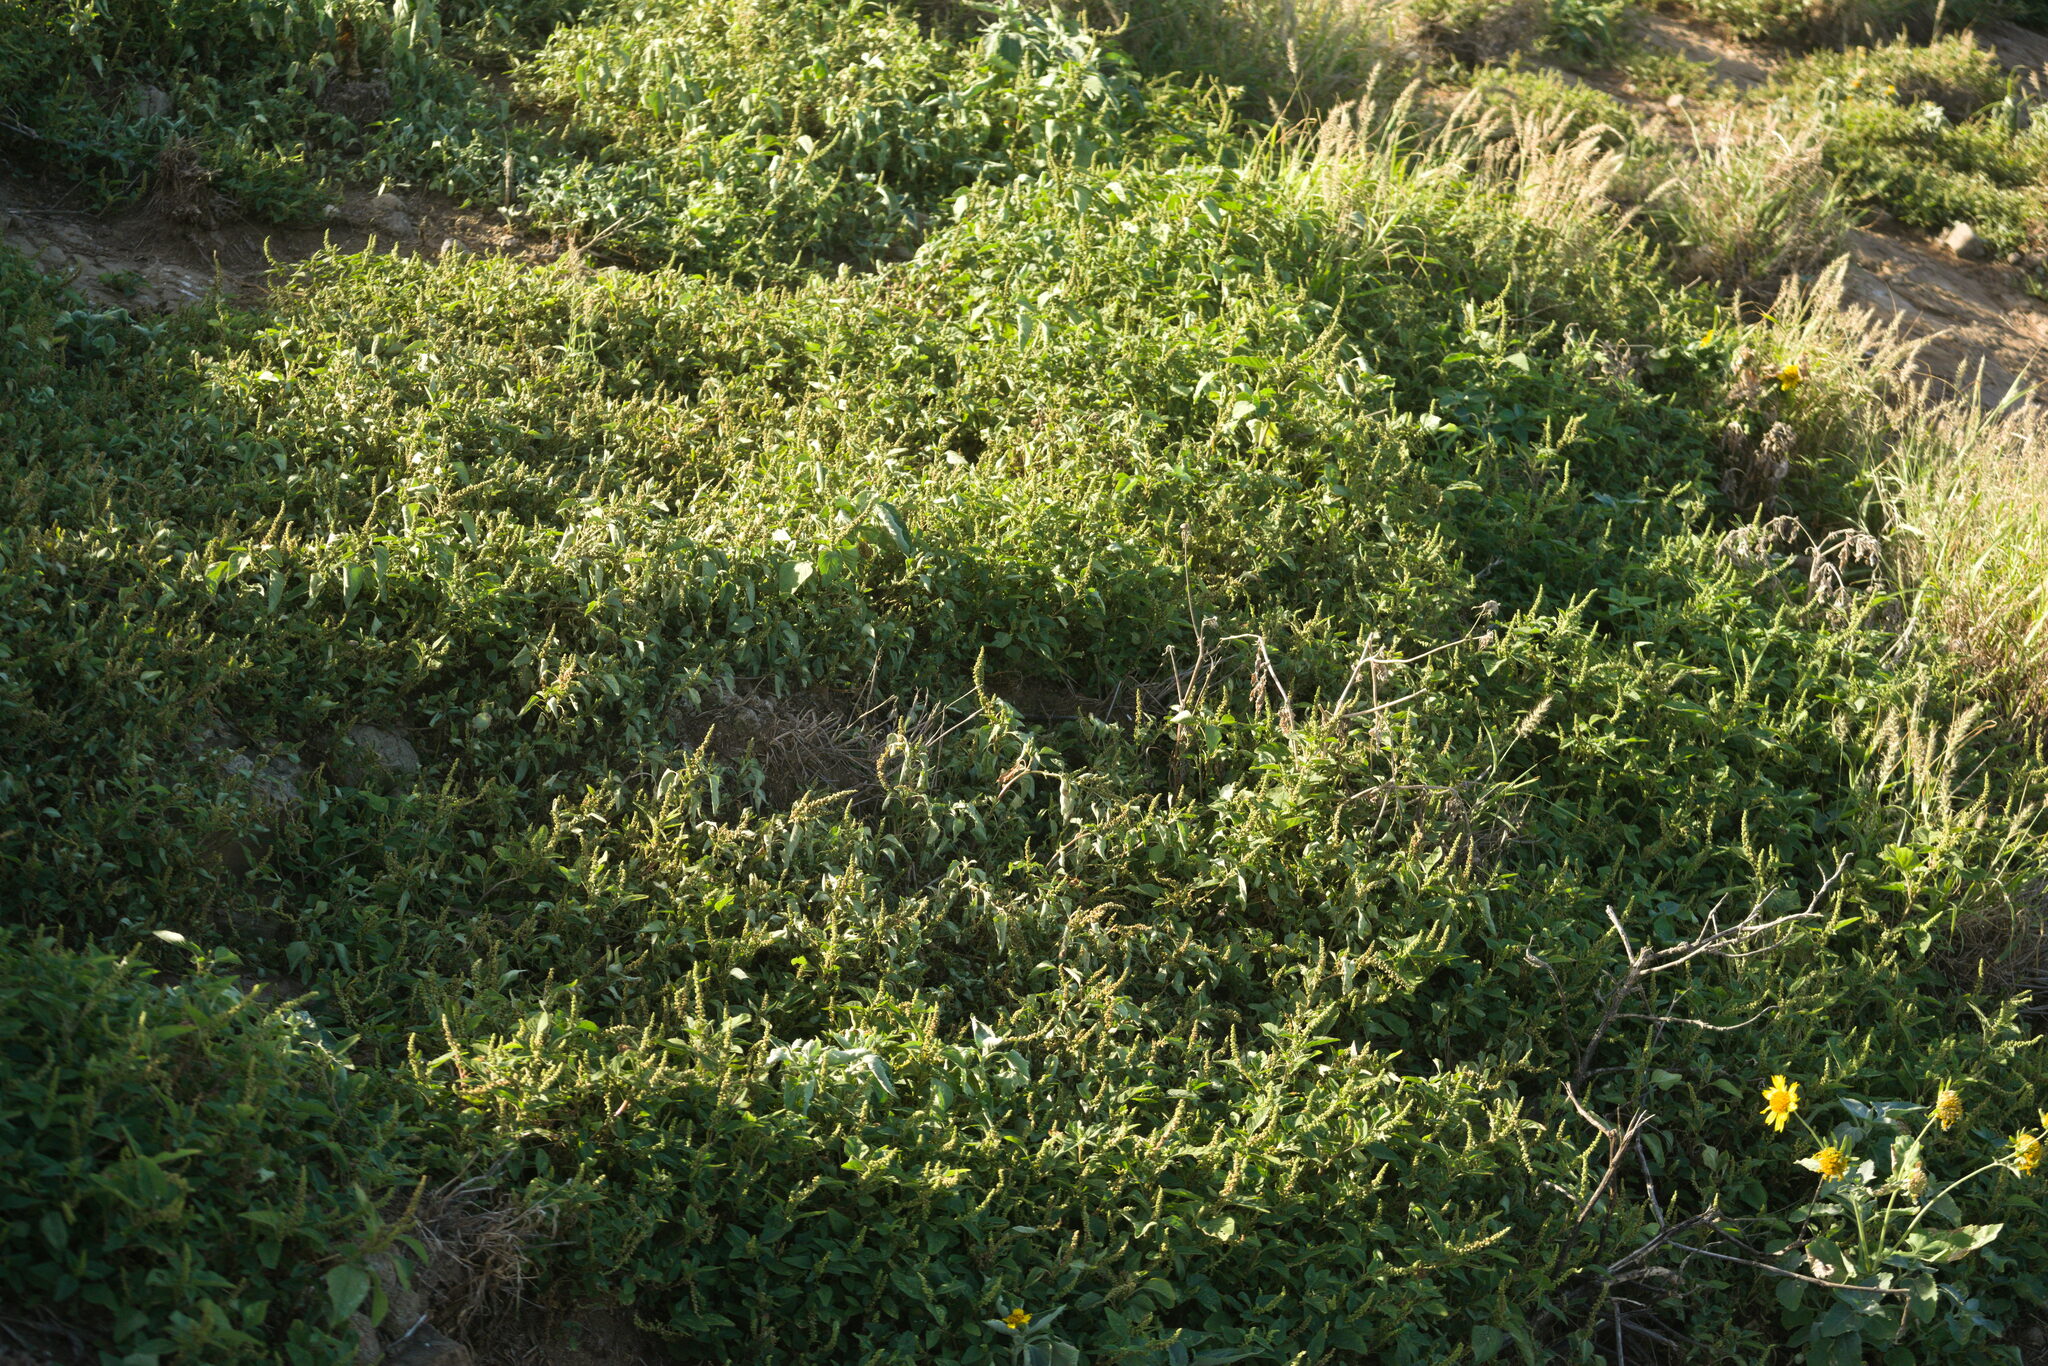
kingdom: Plantae
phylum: Tracheophyta
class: Magnoliopsida
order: Caryophyllales
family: Amaranthaceae
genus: Amaranthus
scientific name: Amaranthus viridis
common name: Slender amaranth
